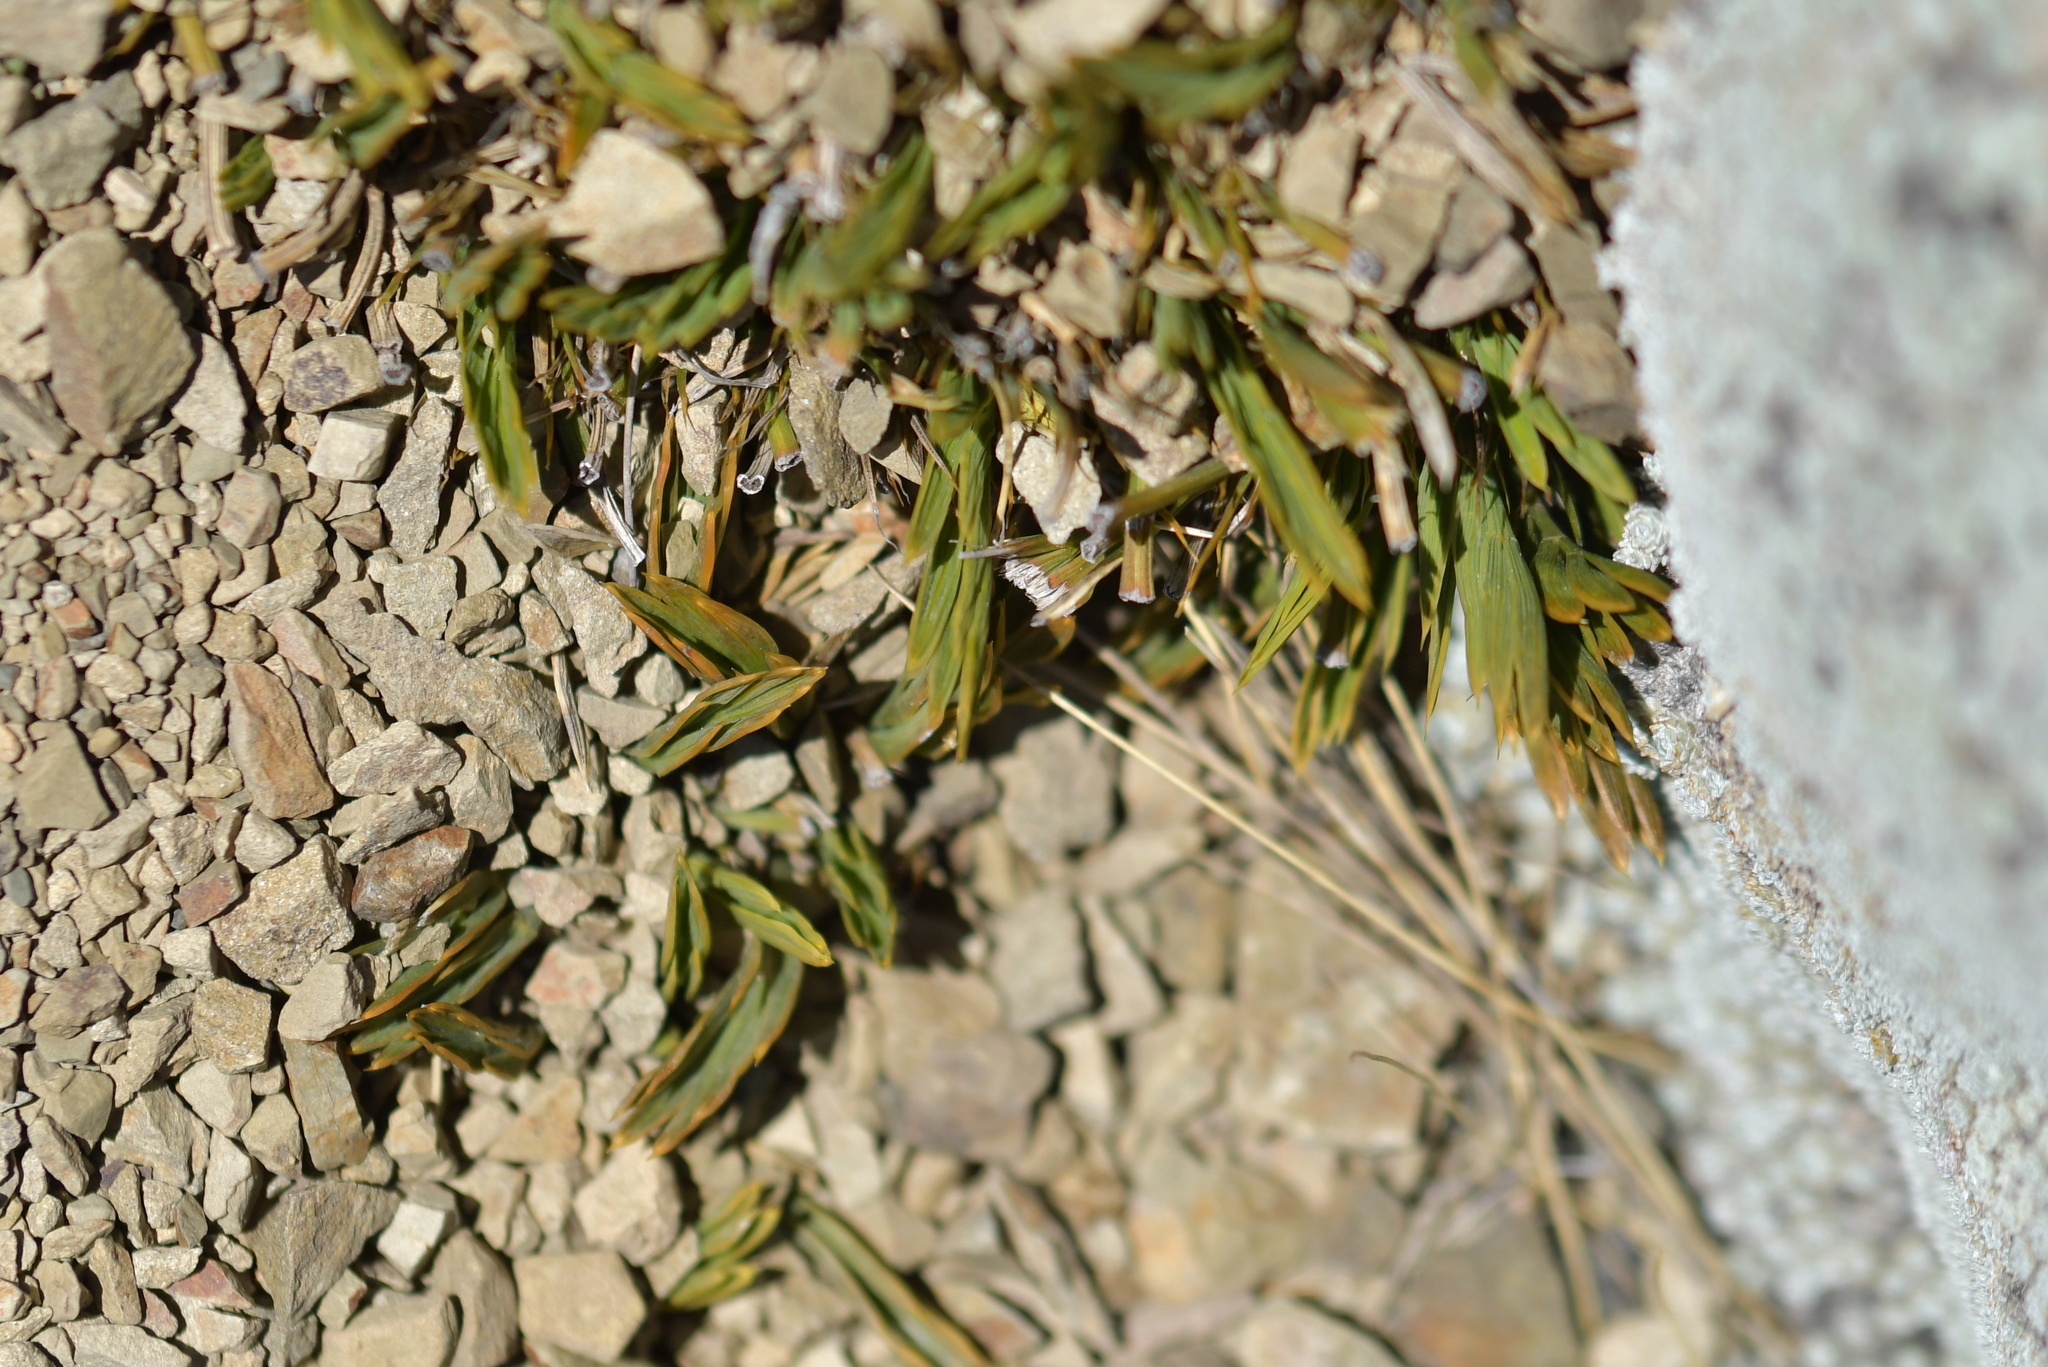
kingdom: Plantae
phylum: Tracheophyta
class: Magnoliopsida
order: Apiales
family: Apiaceae
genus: Aciphylla
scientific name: Aciphylla monroi
